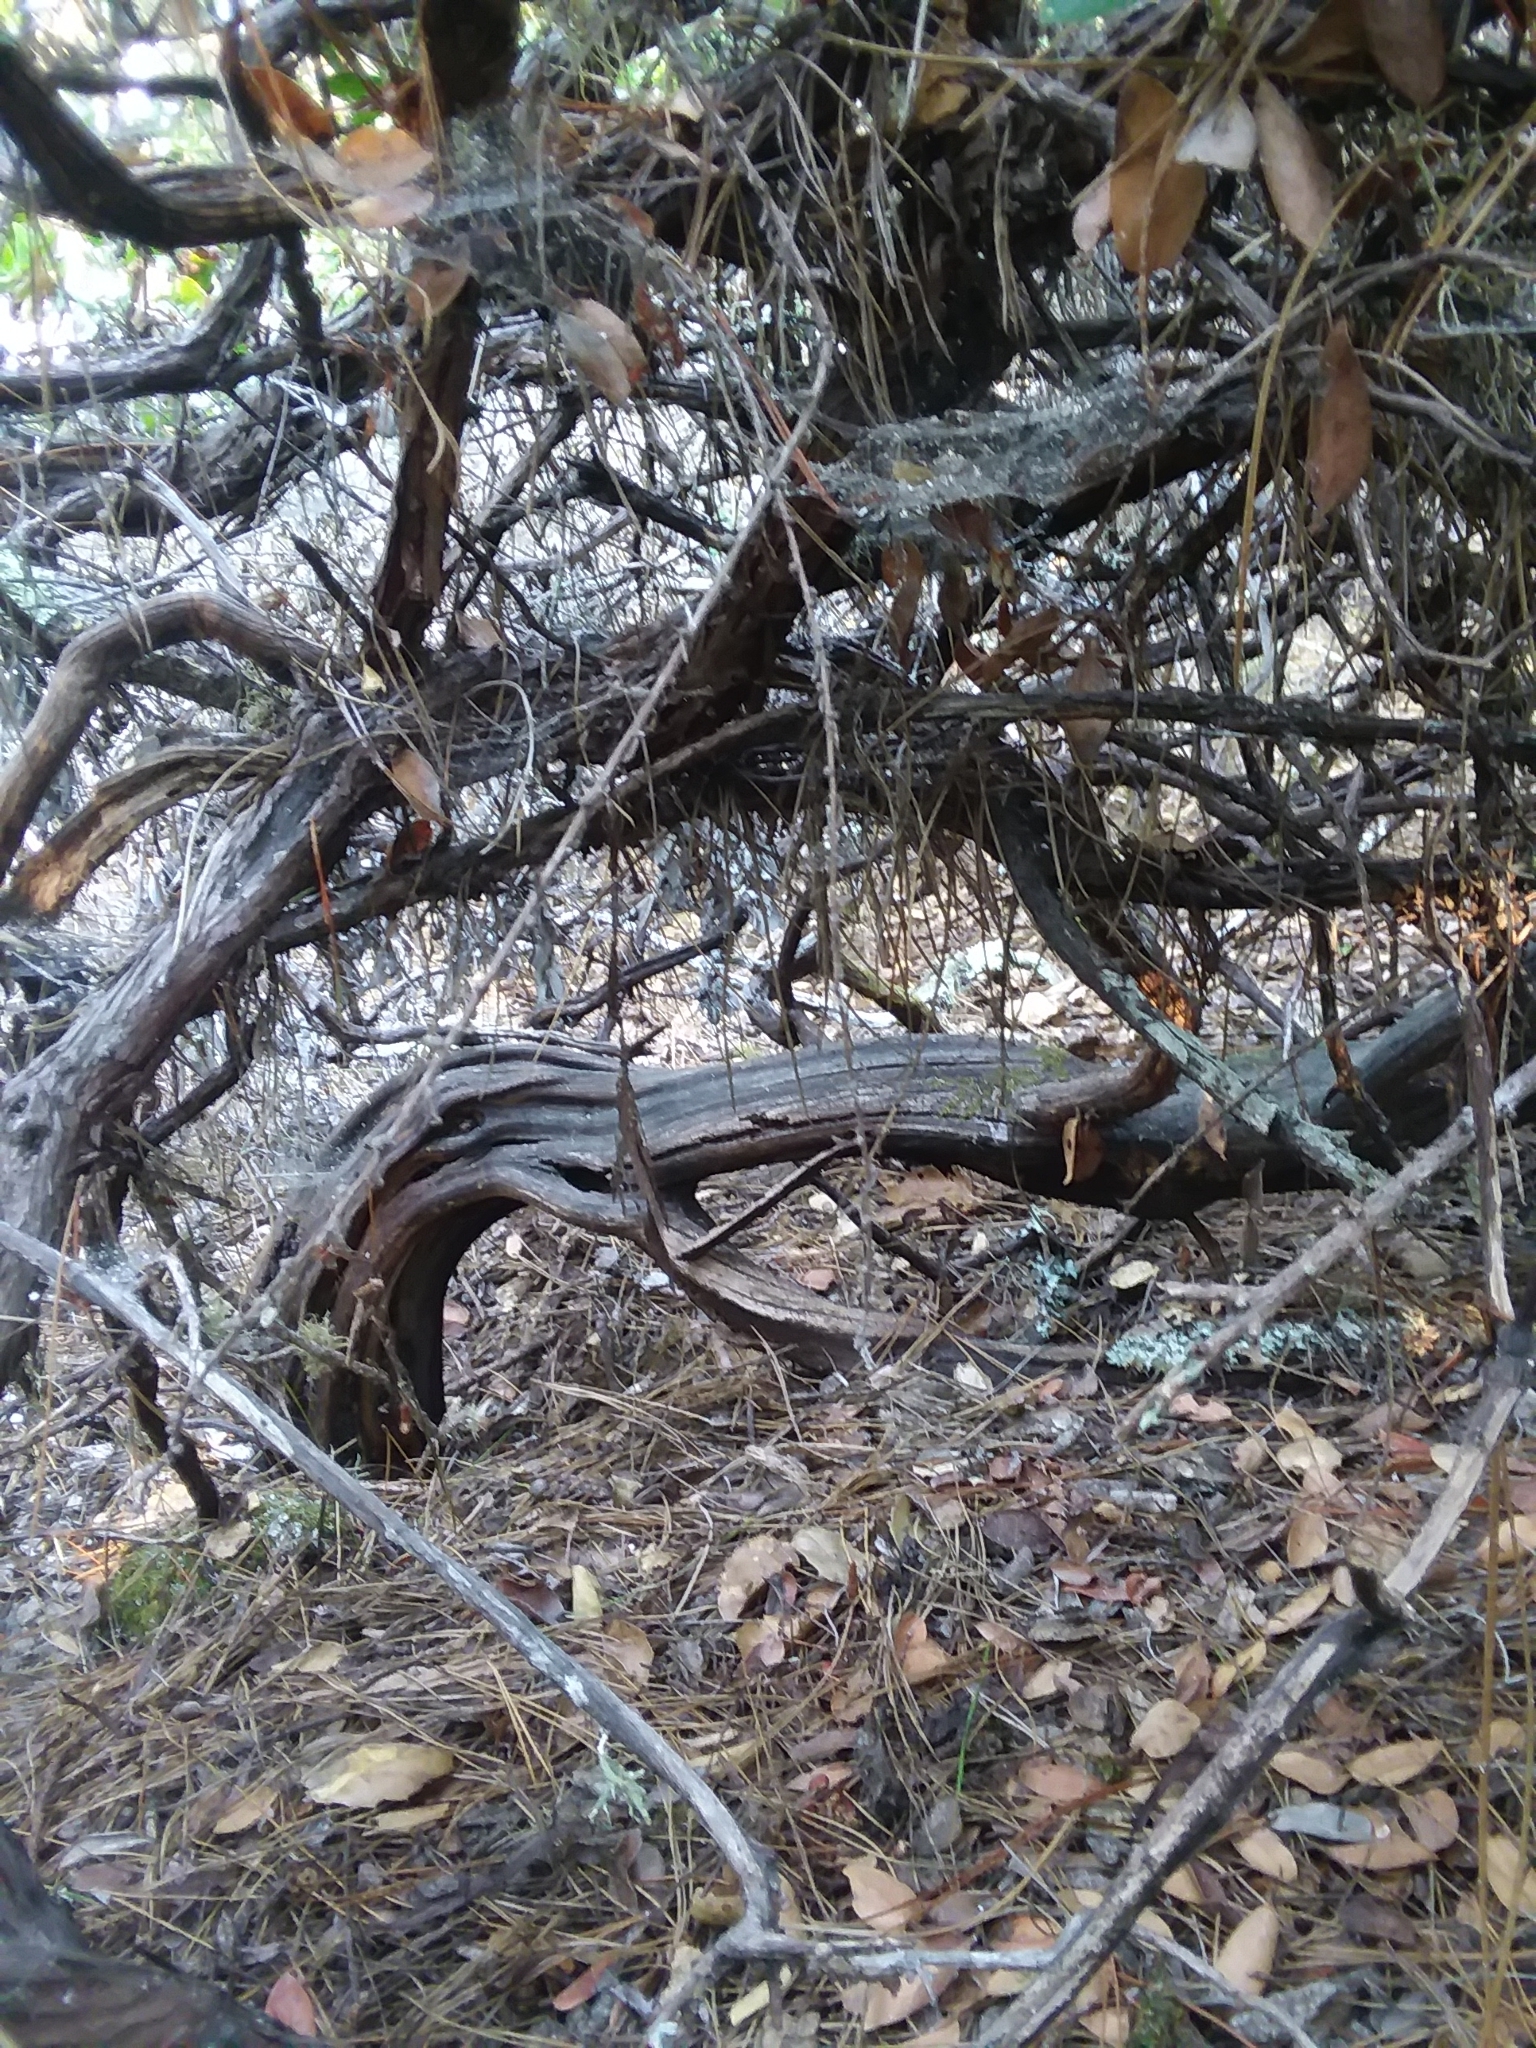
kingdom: Plantae
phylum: Tracheophyta
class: Magnoliopsida
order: Ericales
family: Ericaceae
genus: Arctostaphylos
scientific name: Arctostaphylos tomentosa
